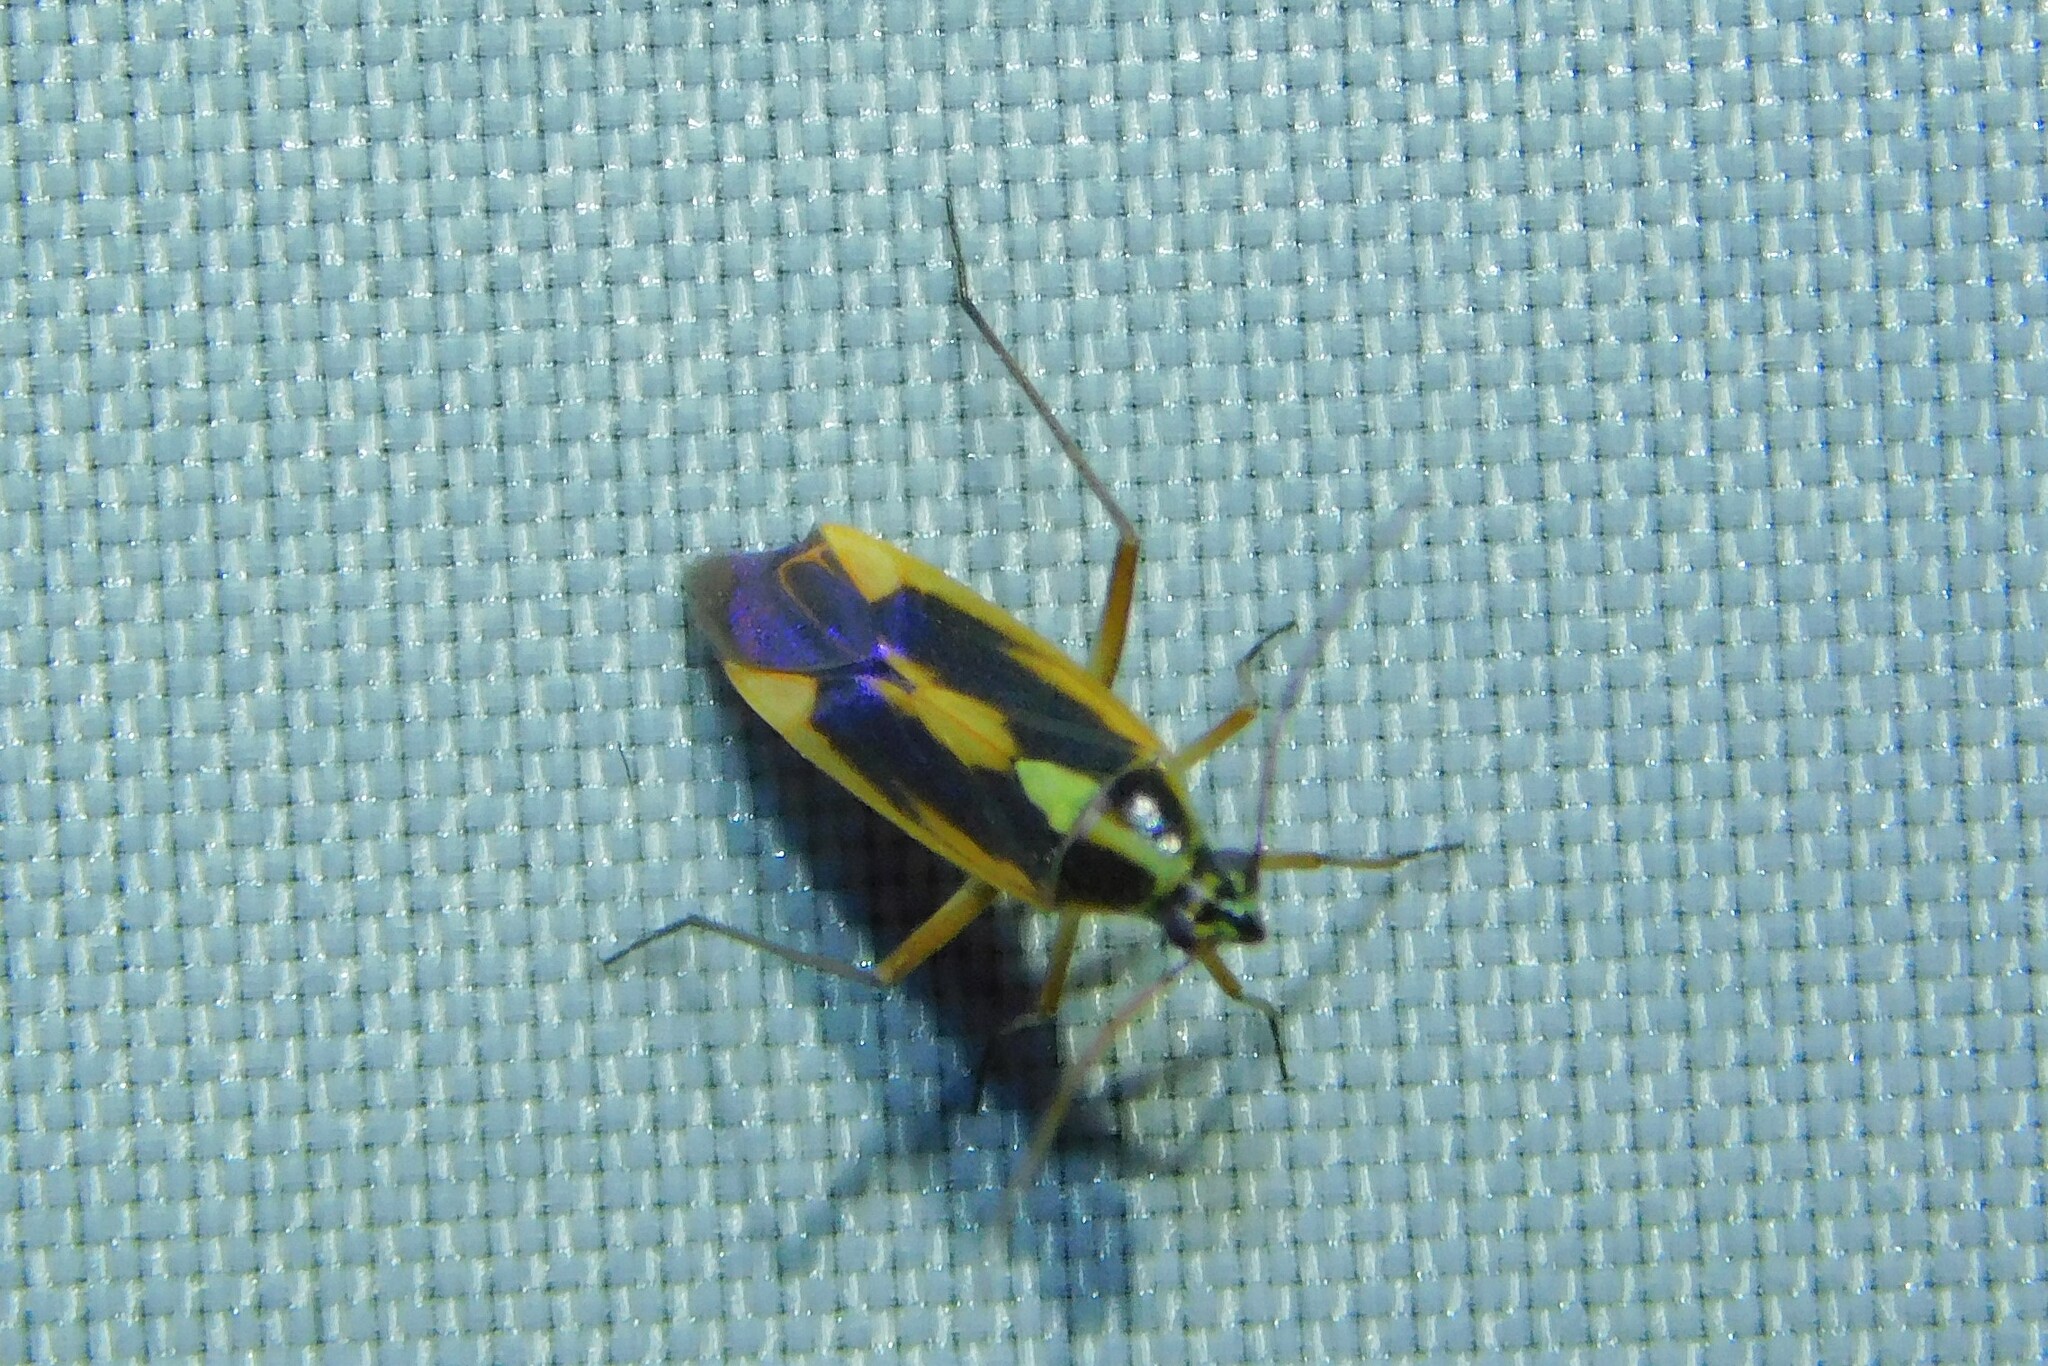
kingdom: Animalia
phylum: Arthropoda
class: Insecta
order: Hemiptera
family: Miridae
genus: Stenotus
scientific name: Stenotus binotatus
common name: Plant bug
